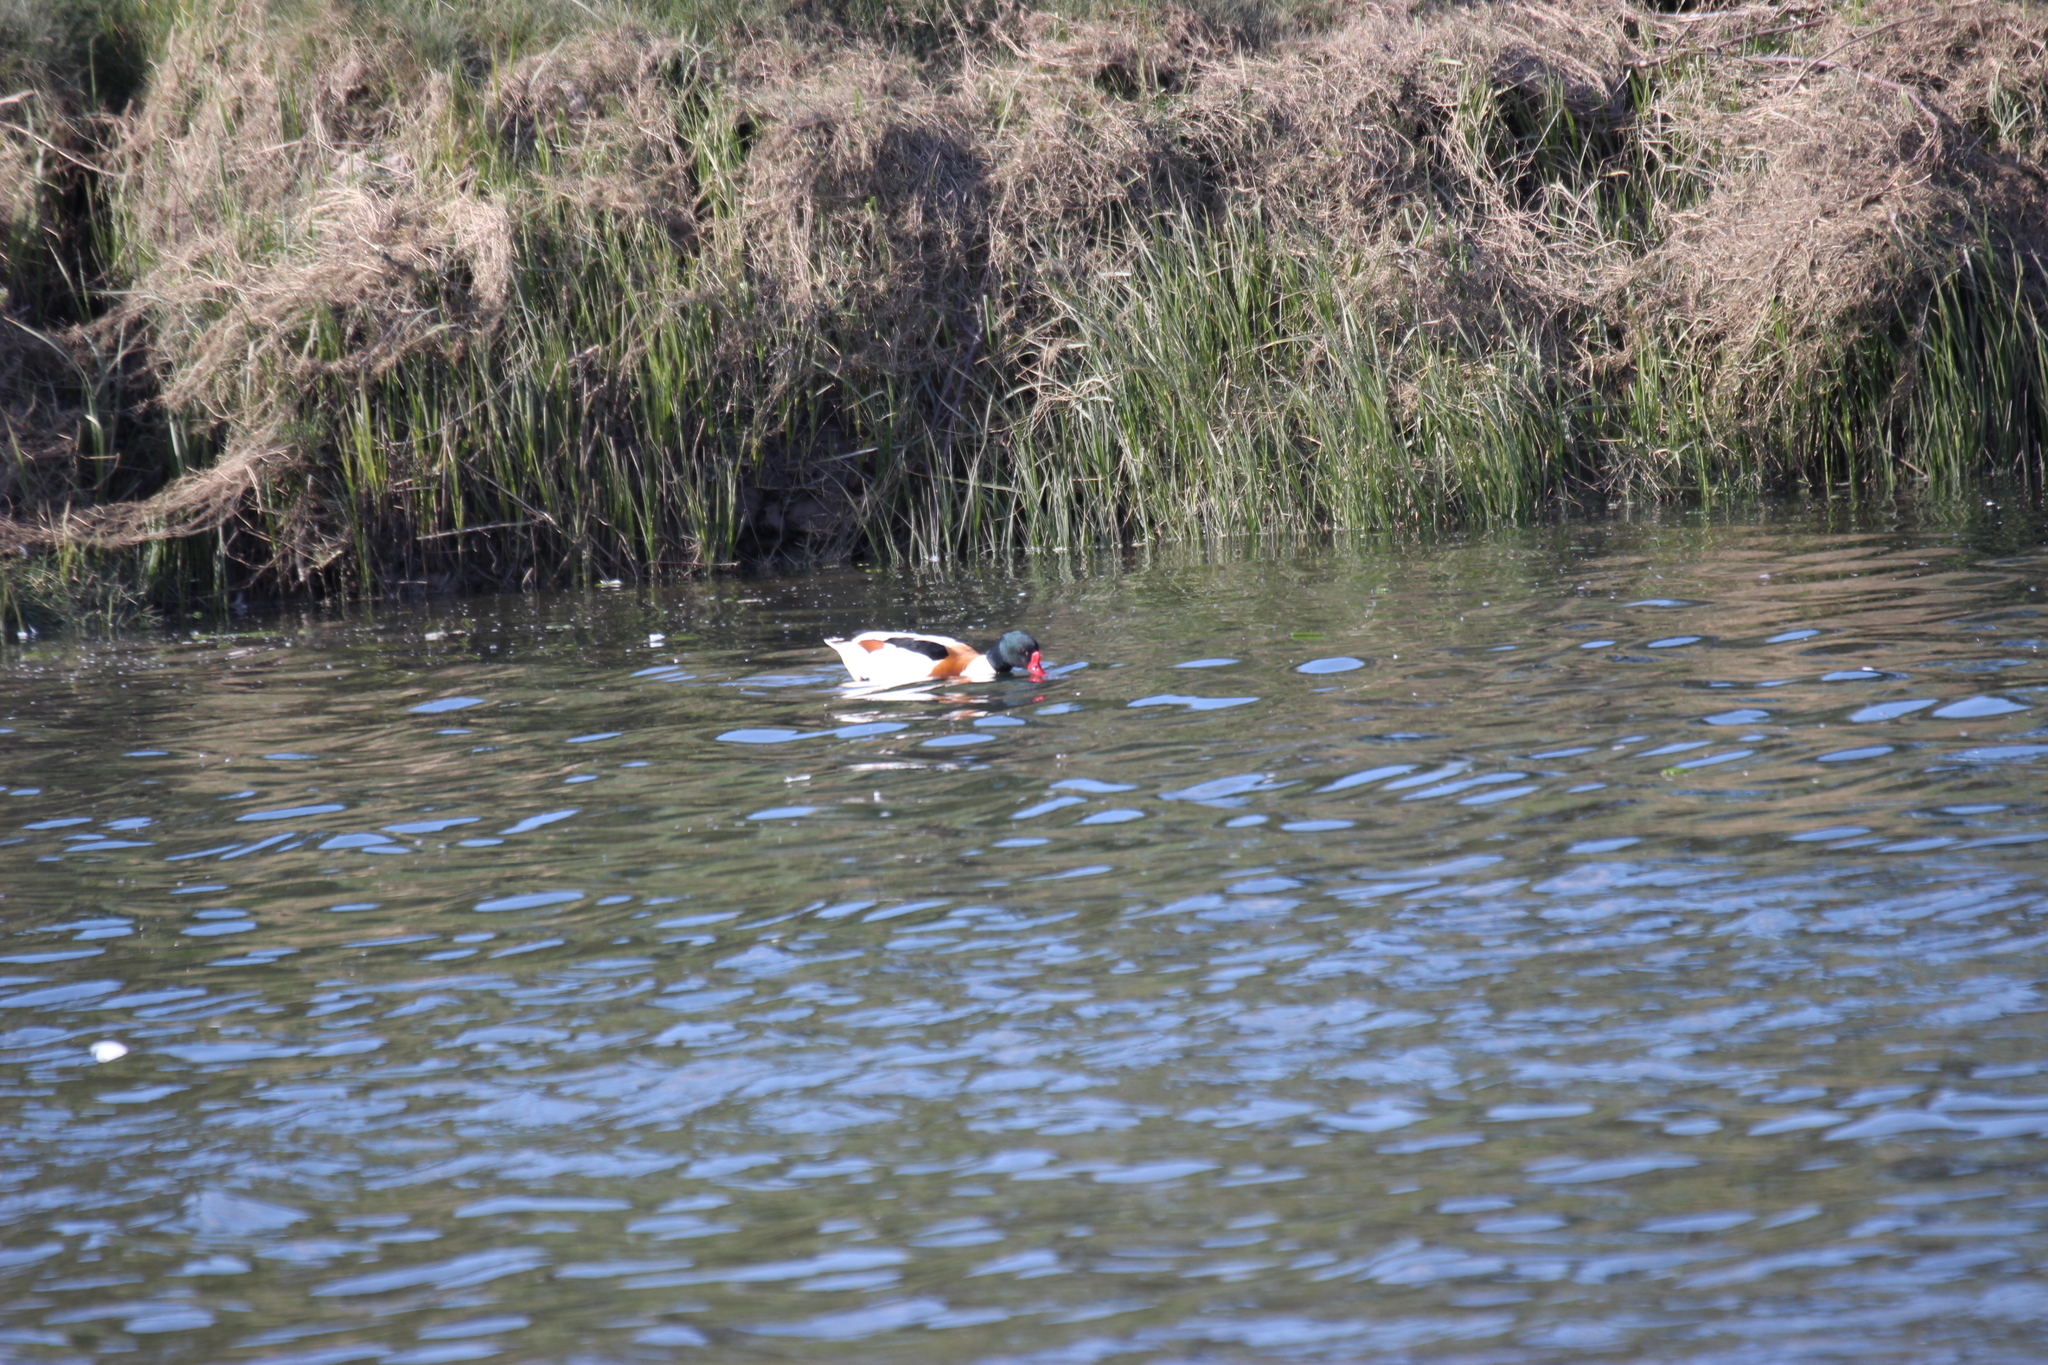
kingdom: Animalia
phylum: Chordata
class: Aves
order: Anseriformes
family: Anatidae
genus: Tadorna
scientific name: Tadorna tadorna
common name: Common shelduck
